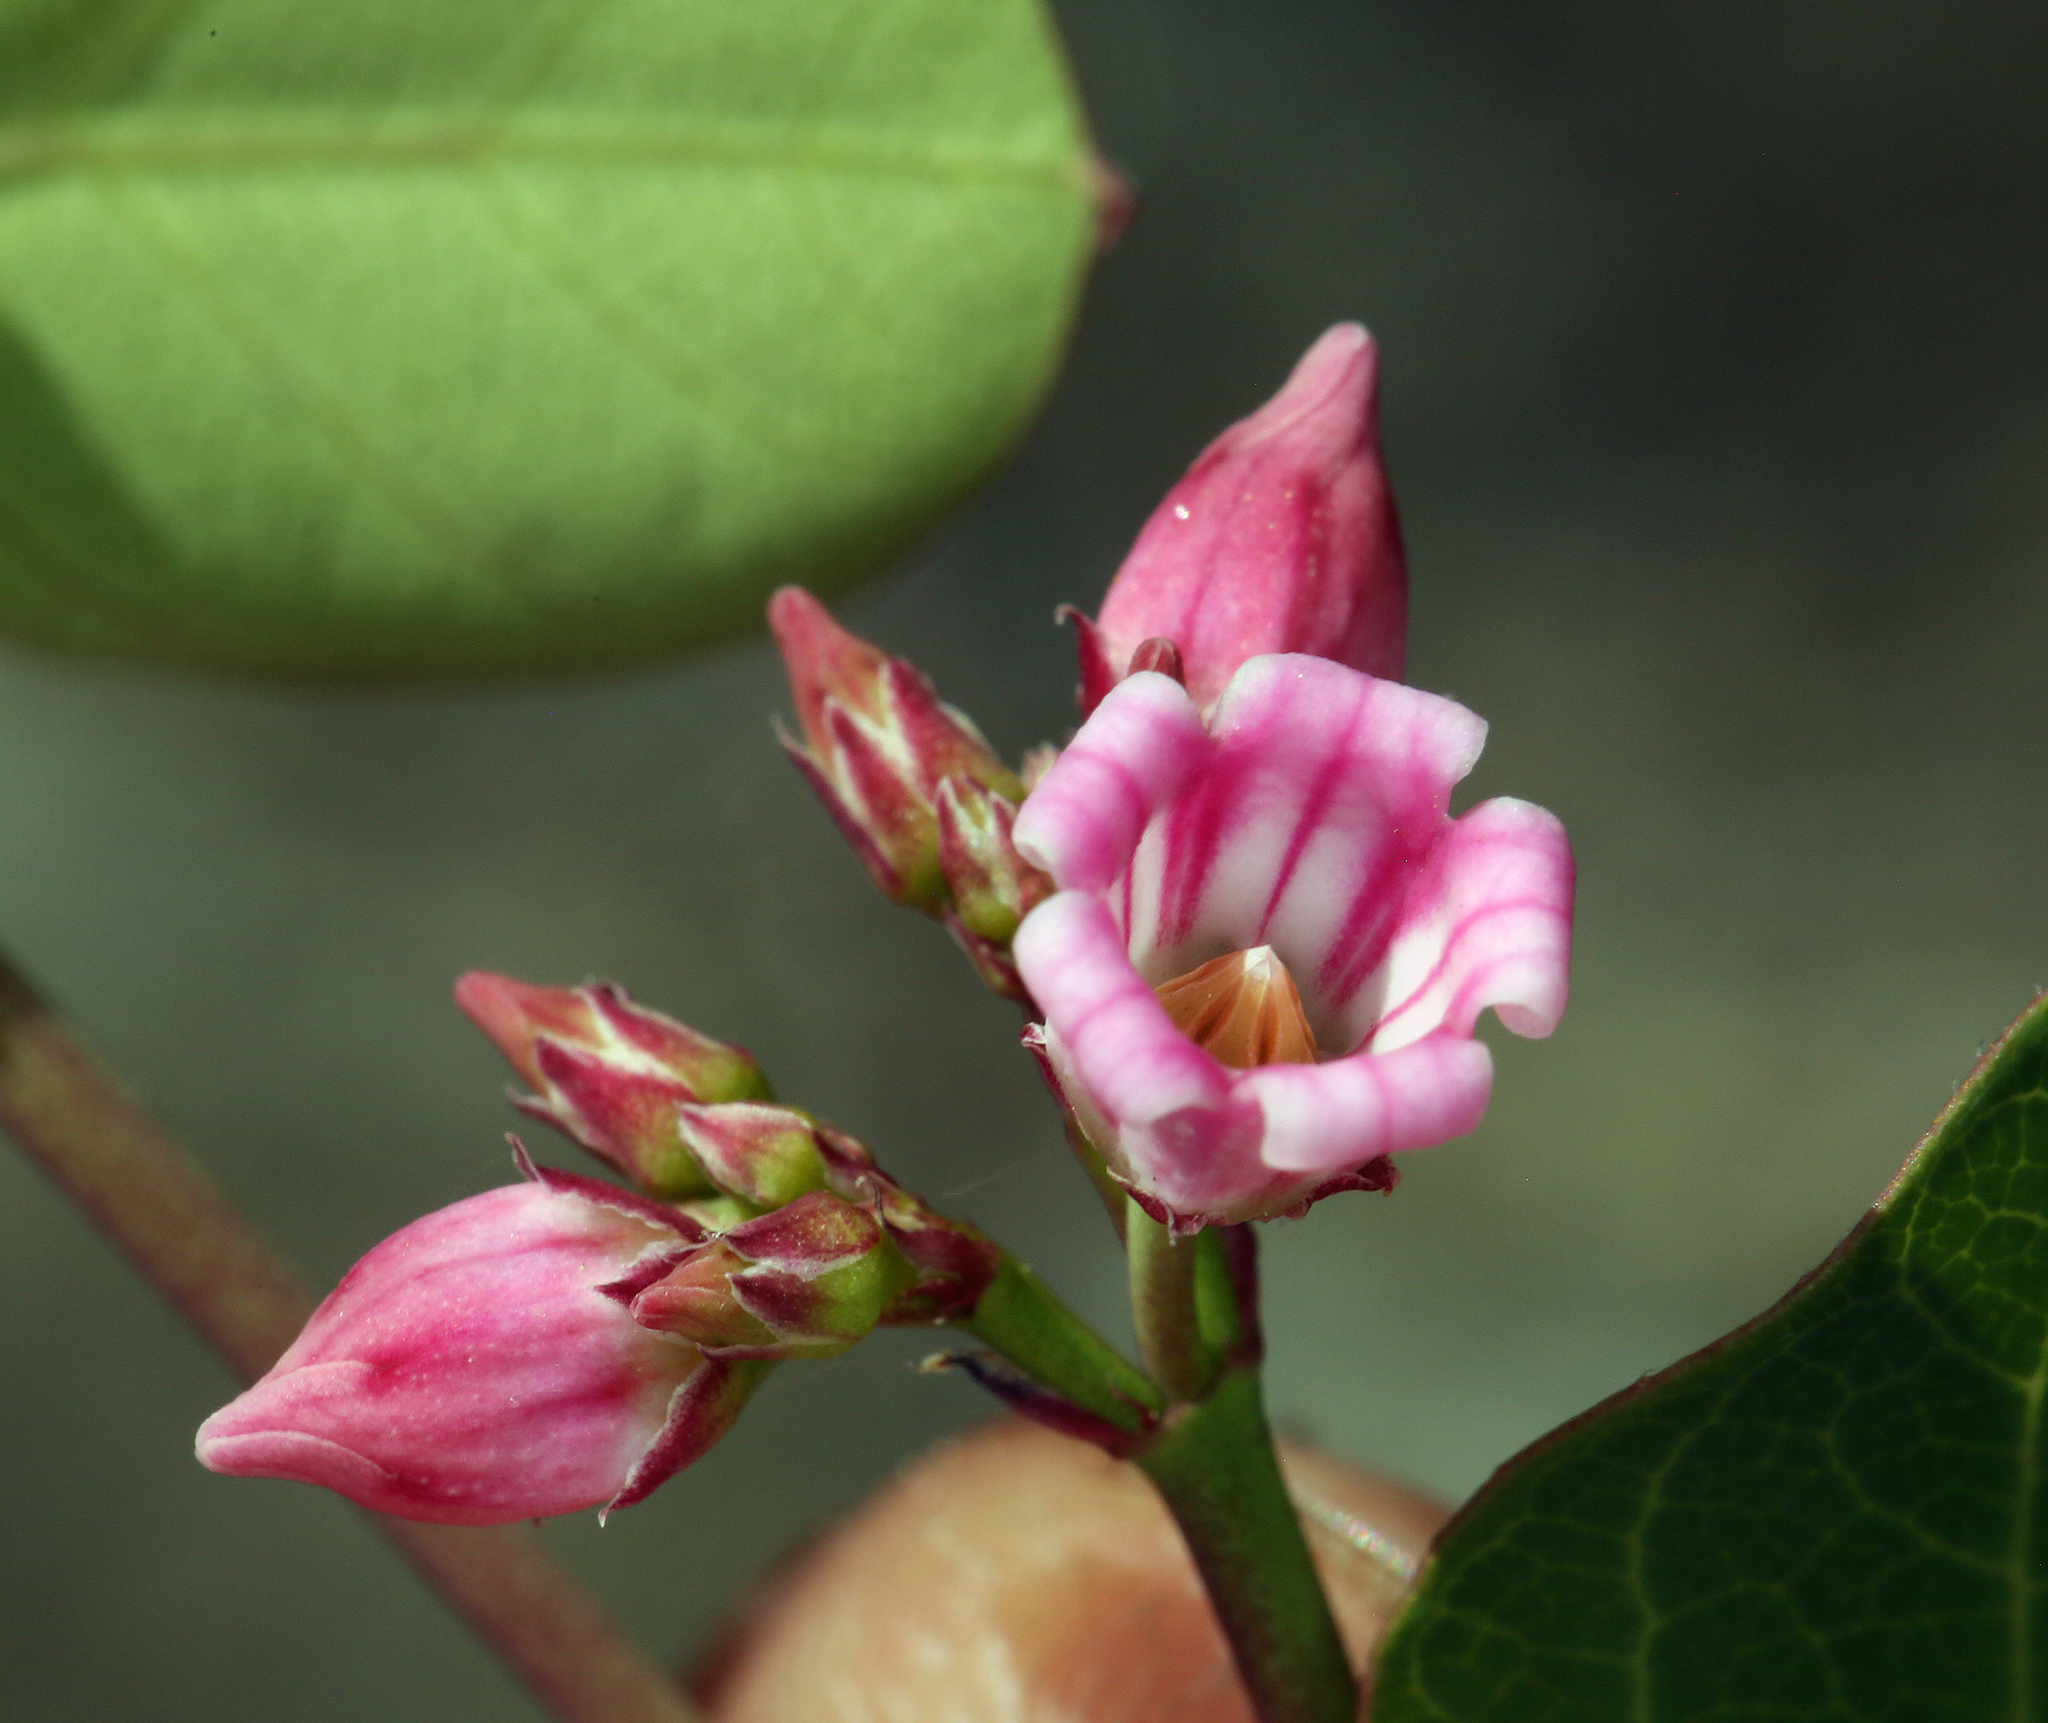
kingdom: Plantae
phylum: Tracheophyta
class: Magnoliopsida
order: Gentianales
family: Apocynaceae
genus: Apocynum
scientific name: Apocynum androsaemifolium
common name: Spreading dogbane
